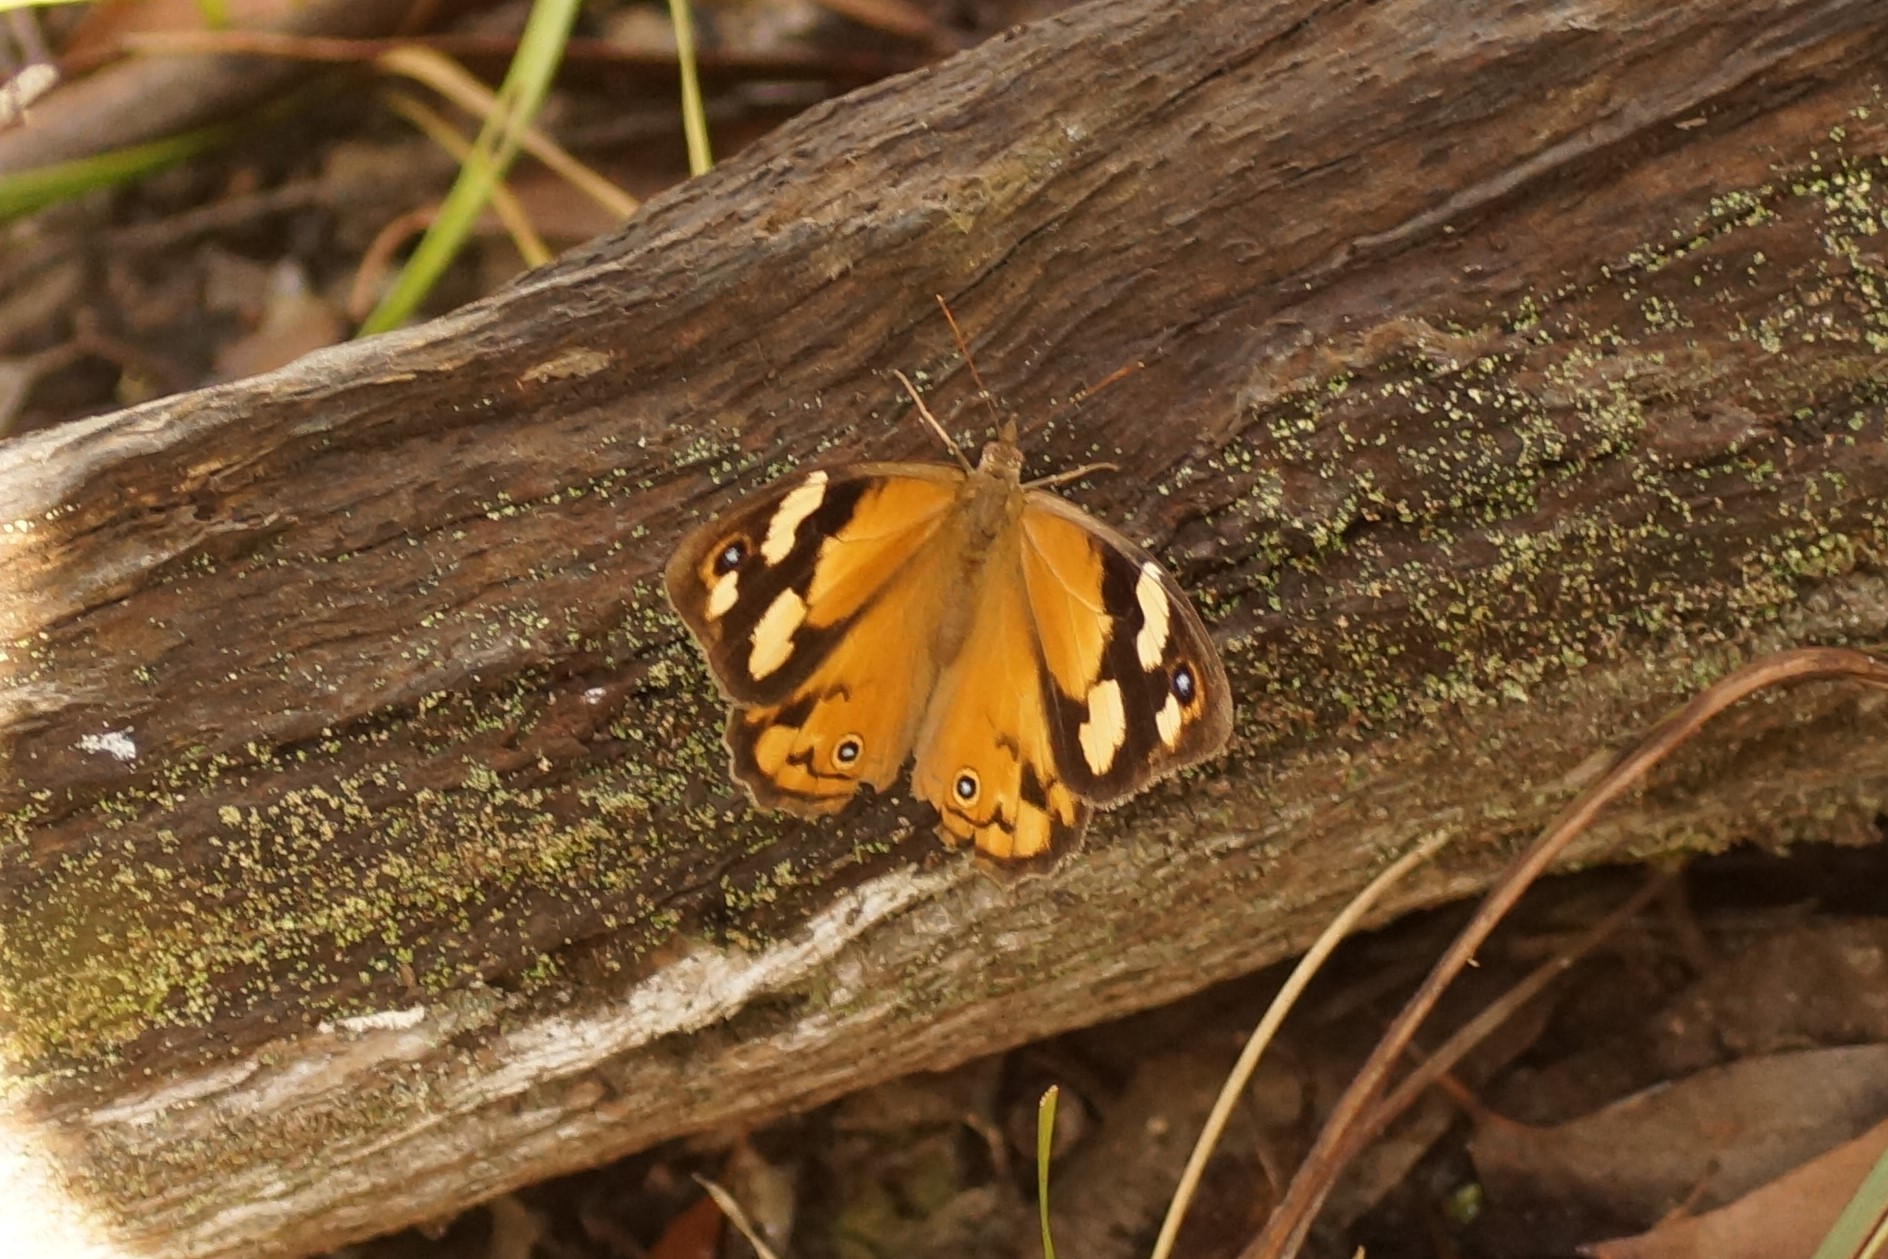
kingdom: Animalia
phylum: Arthropoda
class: Insecta
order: Lepidoptera
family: Nymphalidae
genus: Heteronympha
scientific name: Heteronympha merope
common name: Common brown
